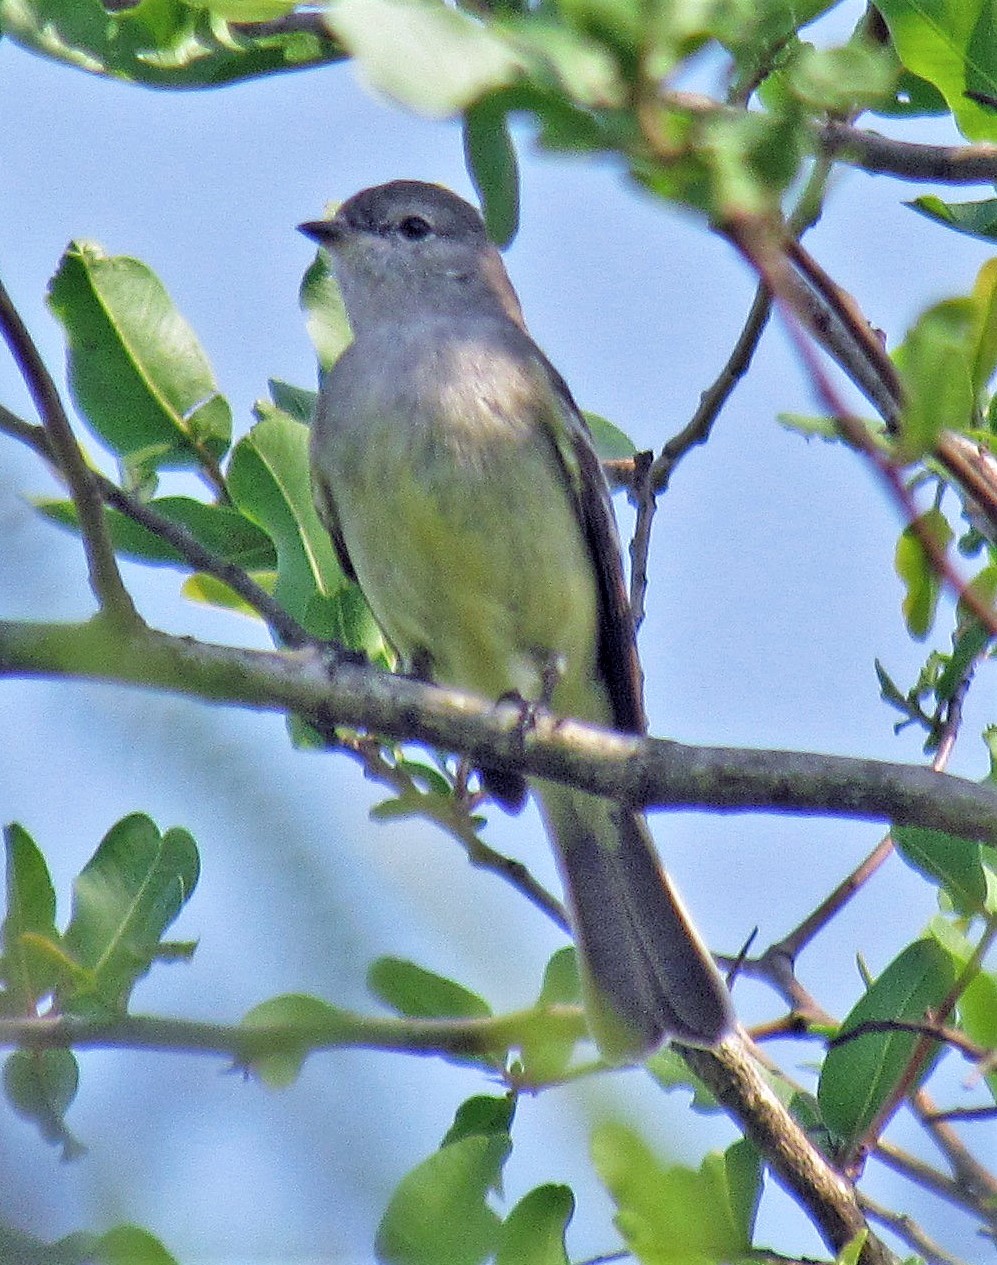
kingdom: Animalia
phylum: Chordata
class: Aves
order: Passeriformes
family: Tyrannidae
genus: Sublegatus
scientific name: Sublegatus modestus
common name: Southern scrub flycatcher
